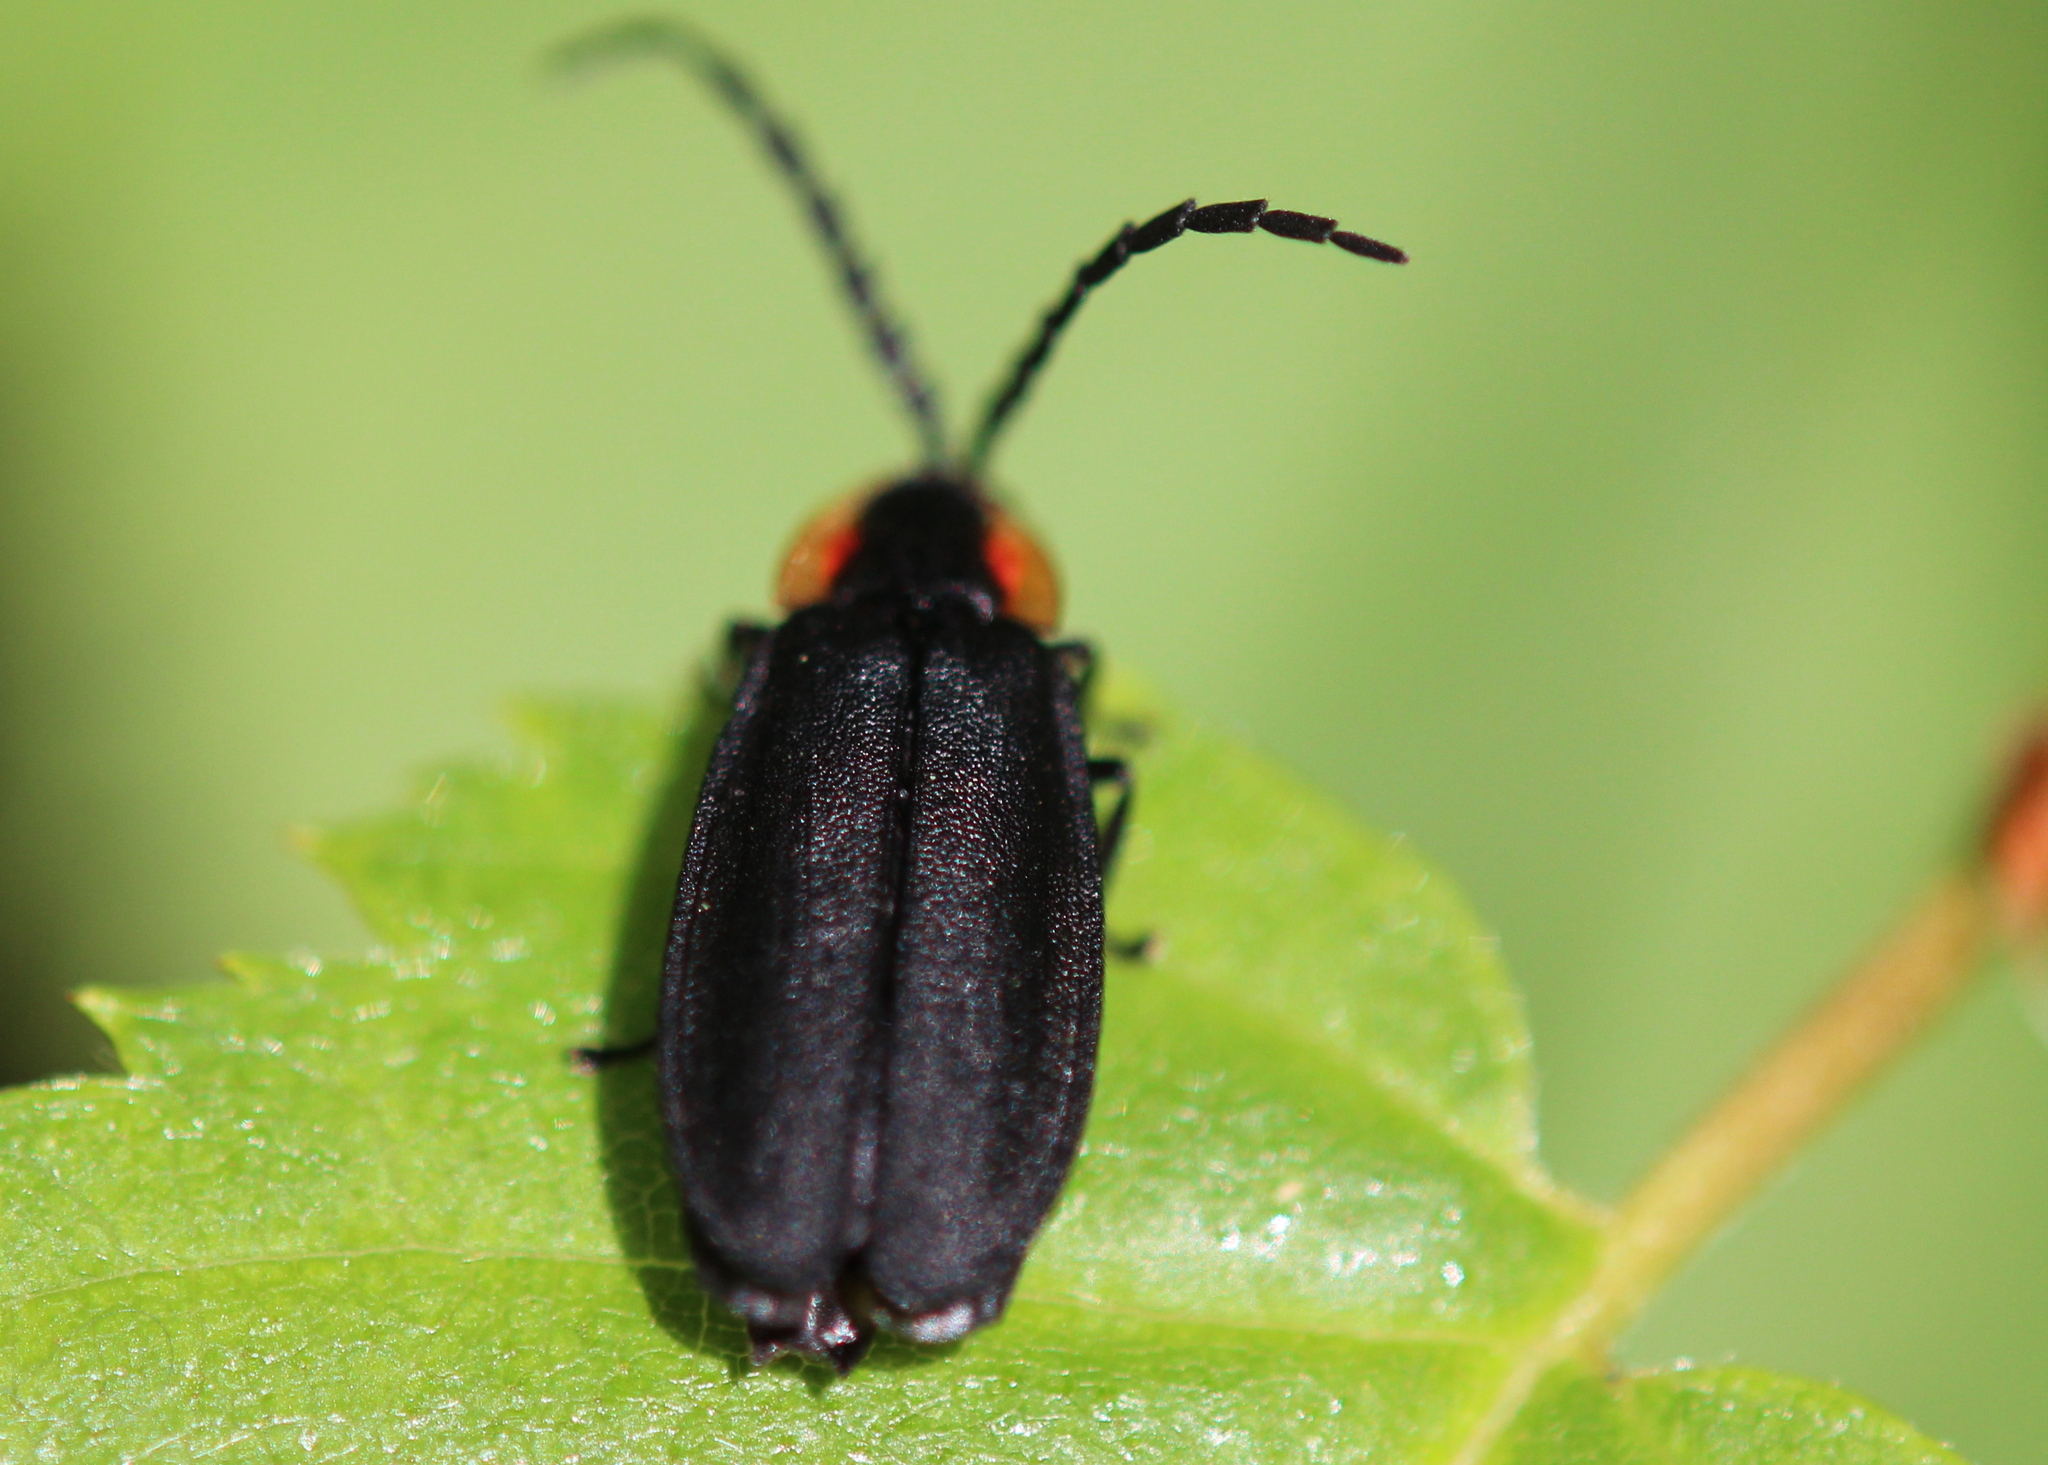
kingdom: Animalia
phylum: Arthropoda
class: Insecta
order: Coleoptera
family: Lampyridae
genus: Lucidota
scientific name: Lucidota atra
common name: Black firefly
